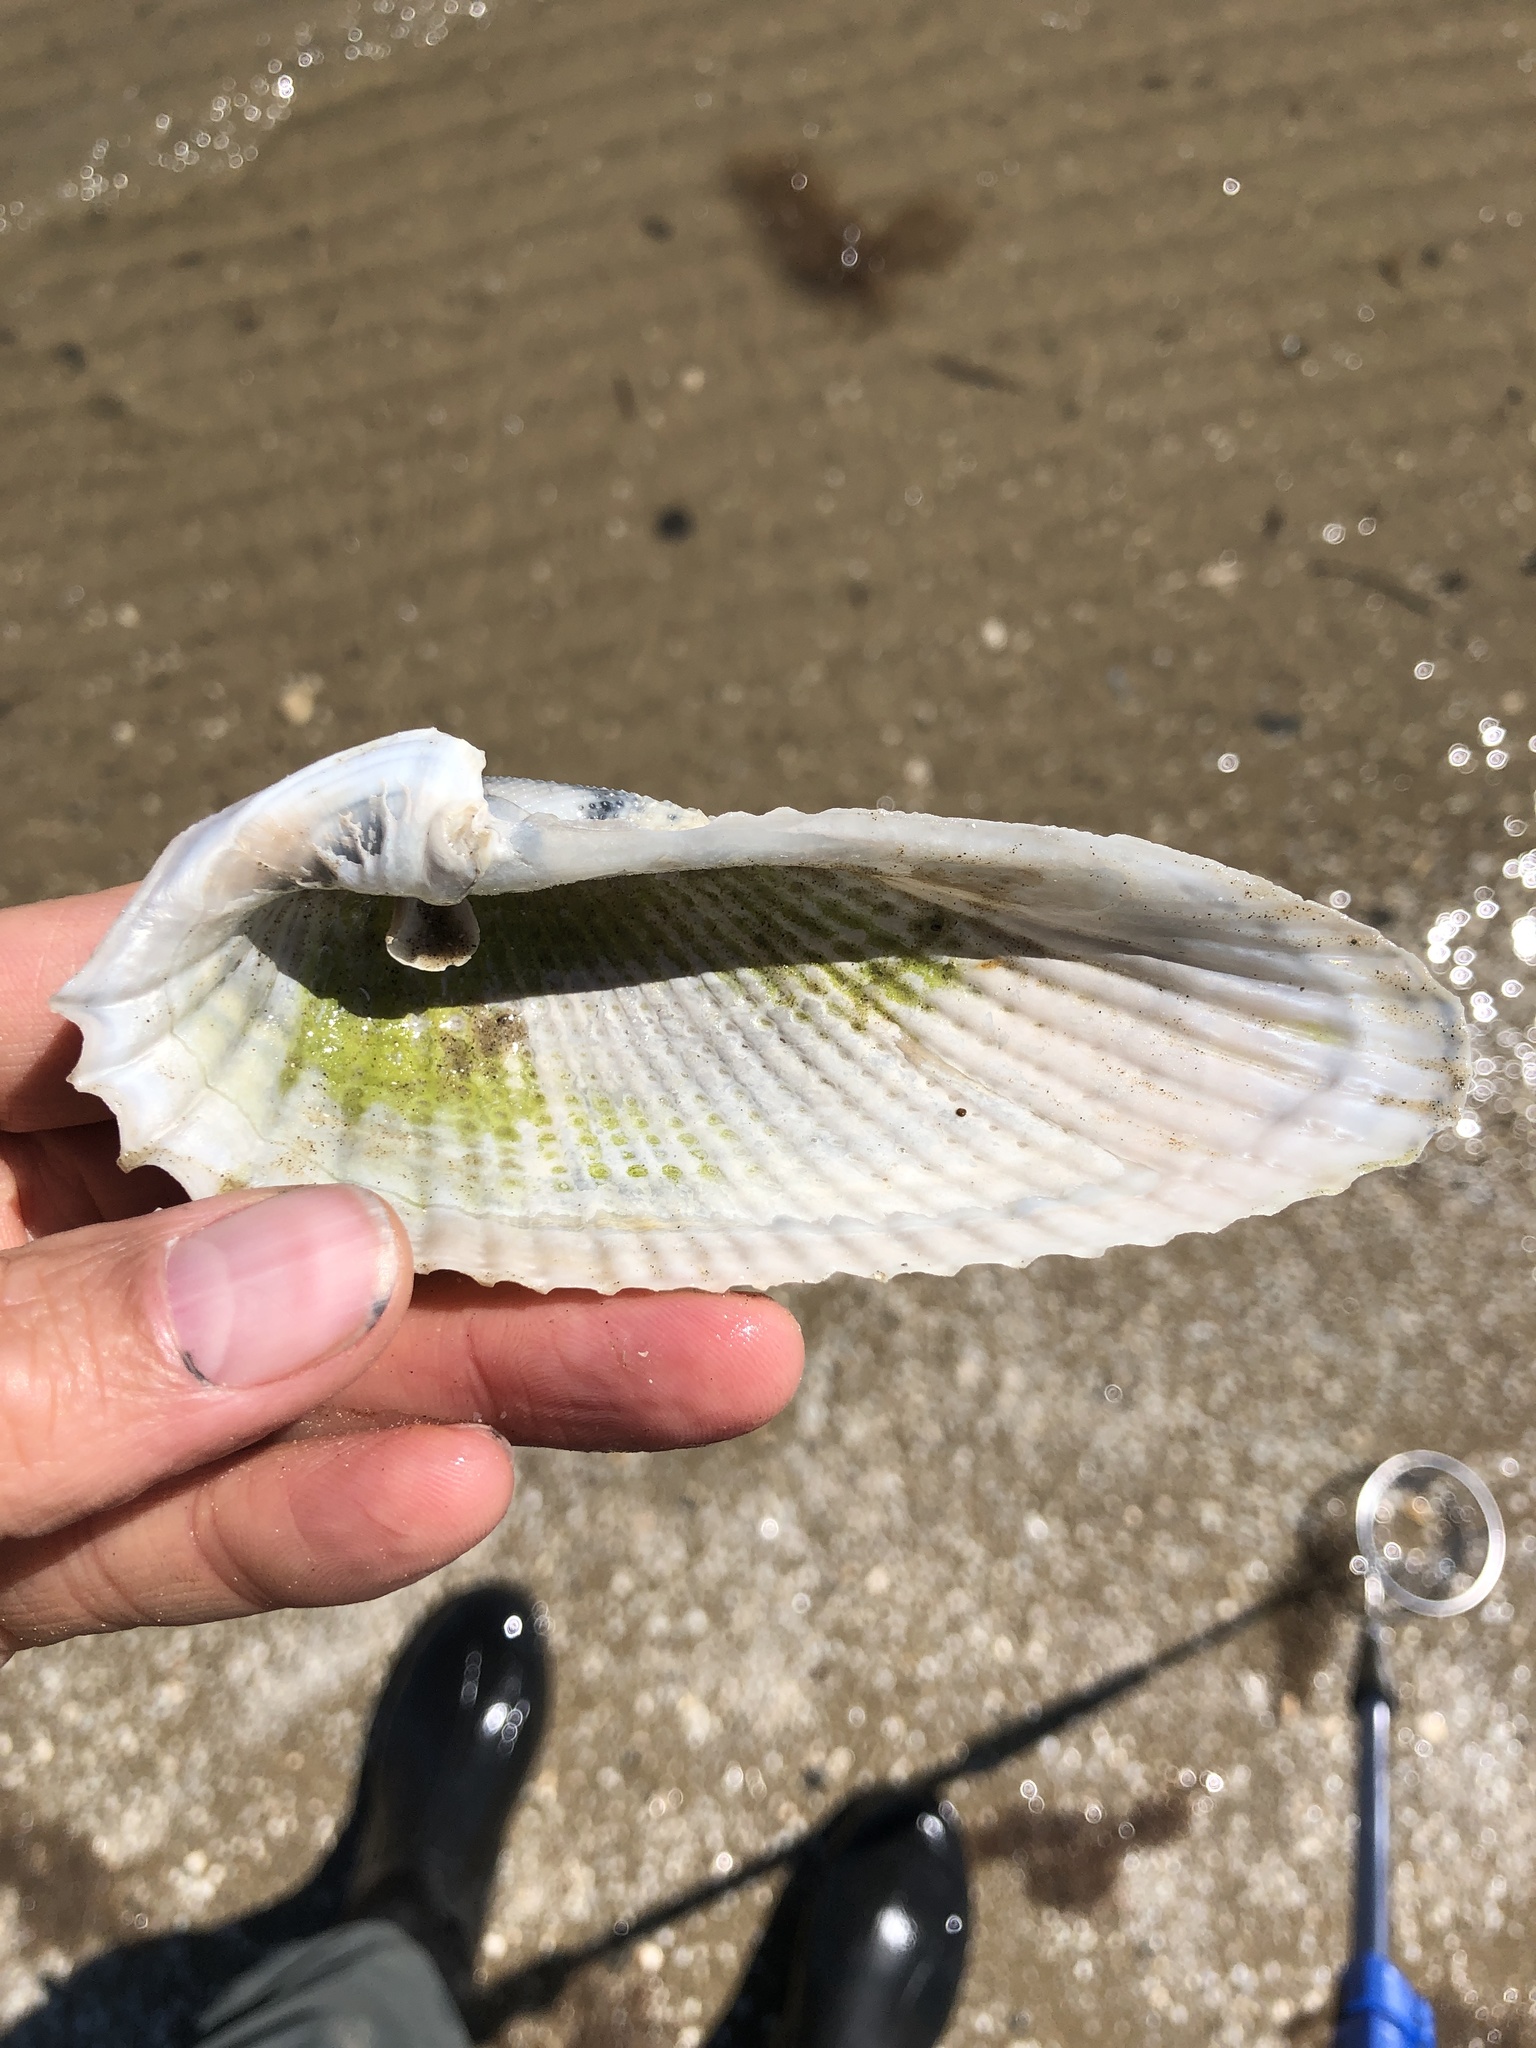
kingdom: Animalia
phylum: Mollusca
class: Bivalvia
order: Myida
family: Pholadidae
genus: Cyrtopleura
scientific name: Cyrtopleura costata
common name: Angel wing
